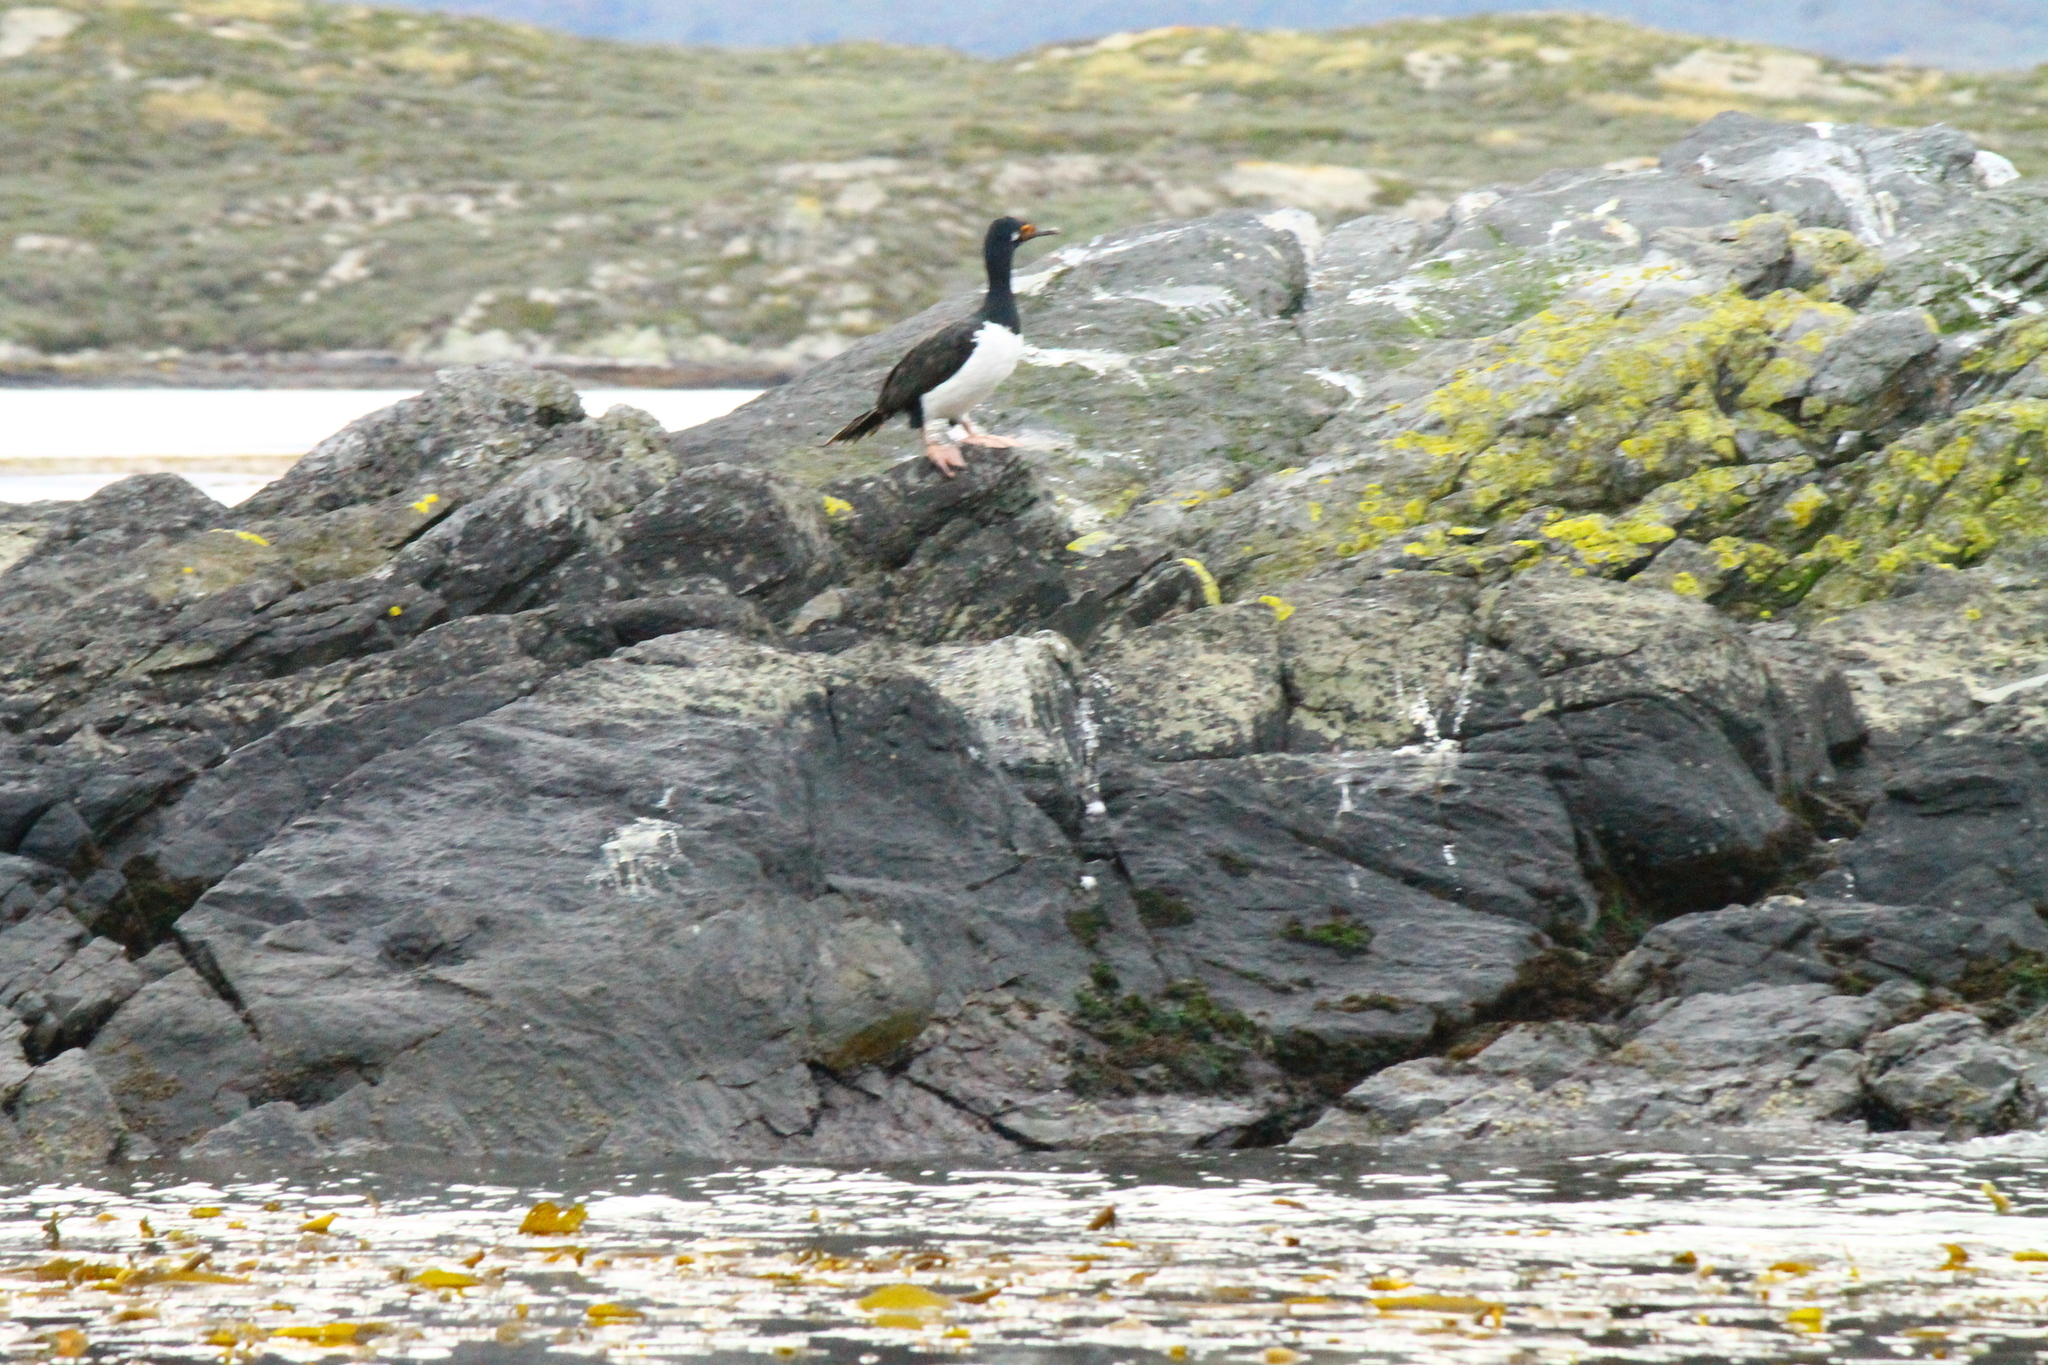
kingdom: Animalia
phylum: Chordata
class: Aves
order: Suliformes
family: Phalacrocoracidae
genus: Phalacrocorax
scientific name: Phalacrocorax magellanicus
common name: Rock shag
